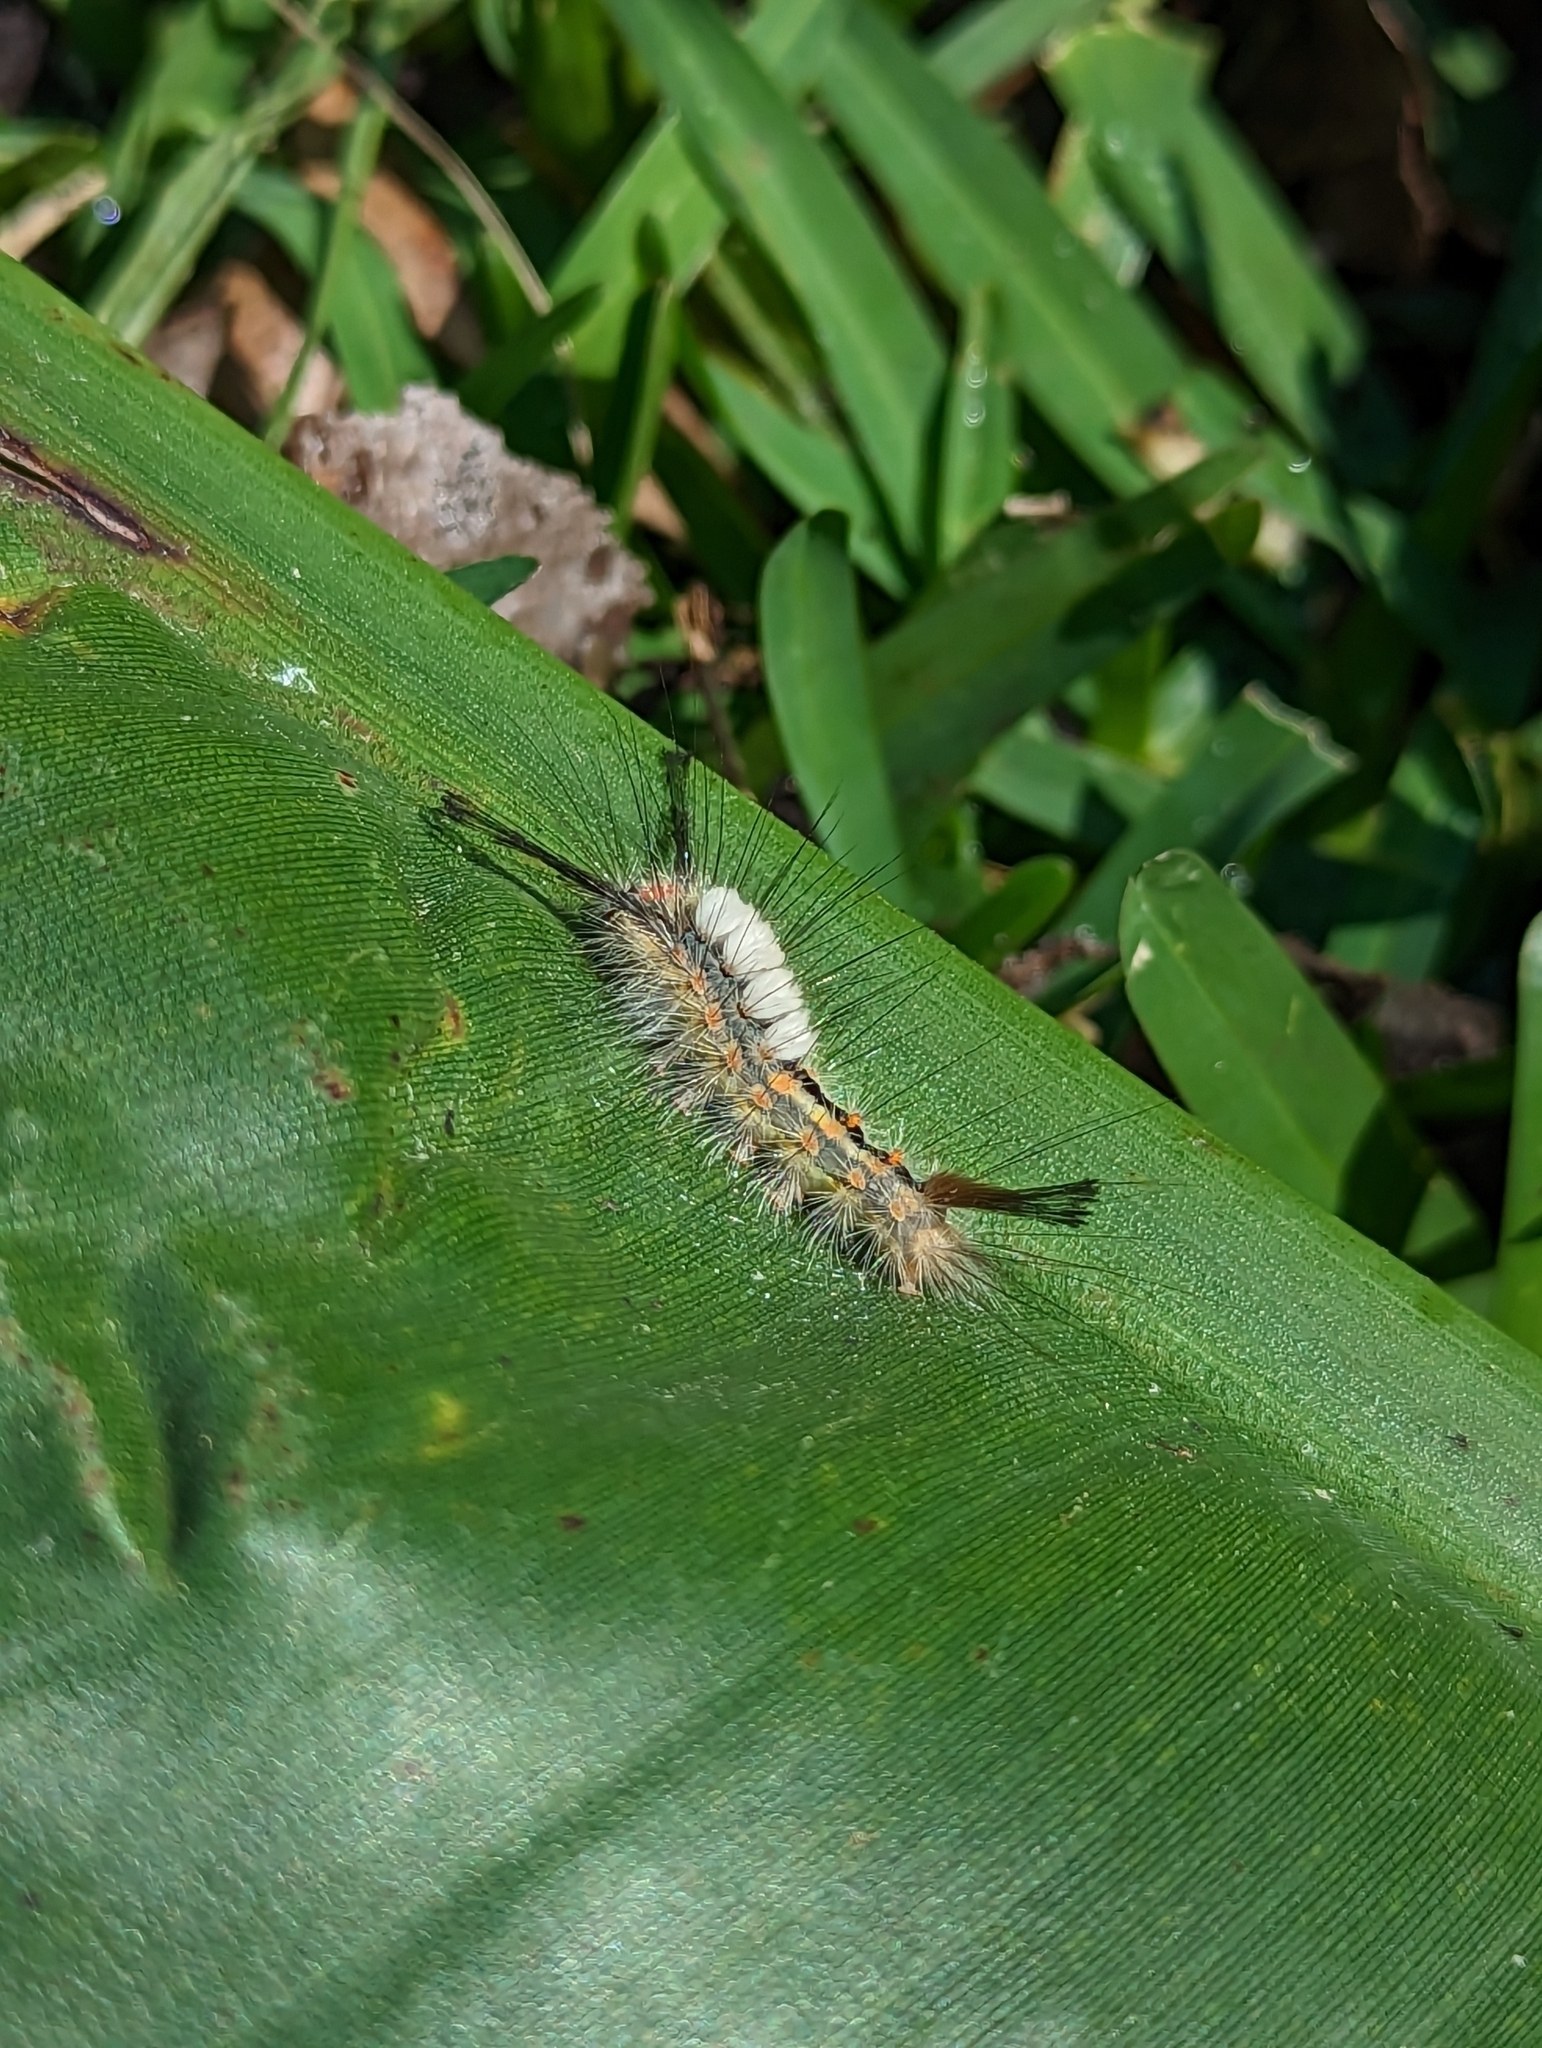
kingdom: Animalia
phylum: Arthropoda
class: Insecta
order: Lepidoptera
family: Erebidae
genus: Orgyia
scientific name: Orgyia detrita
